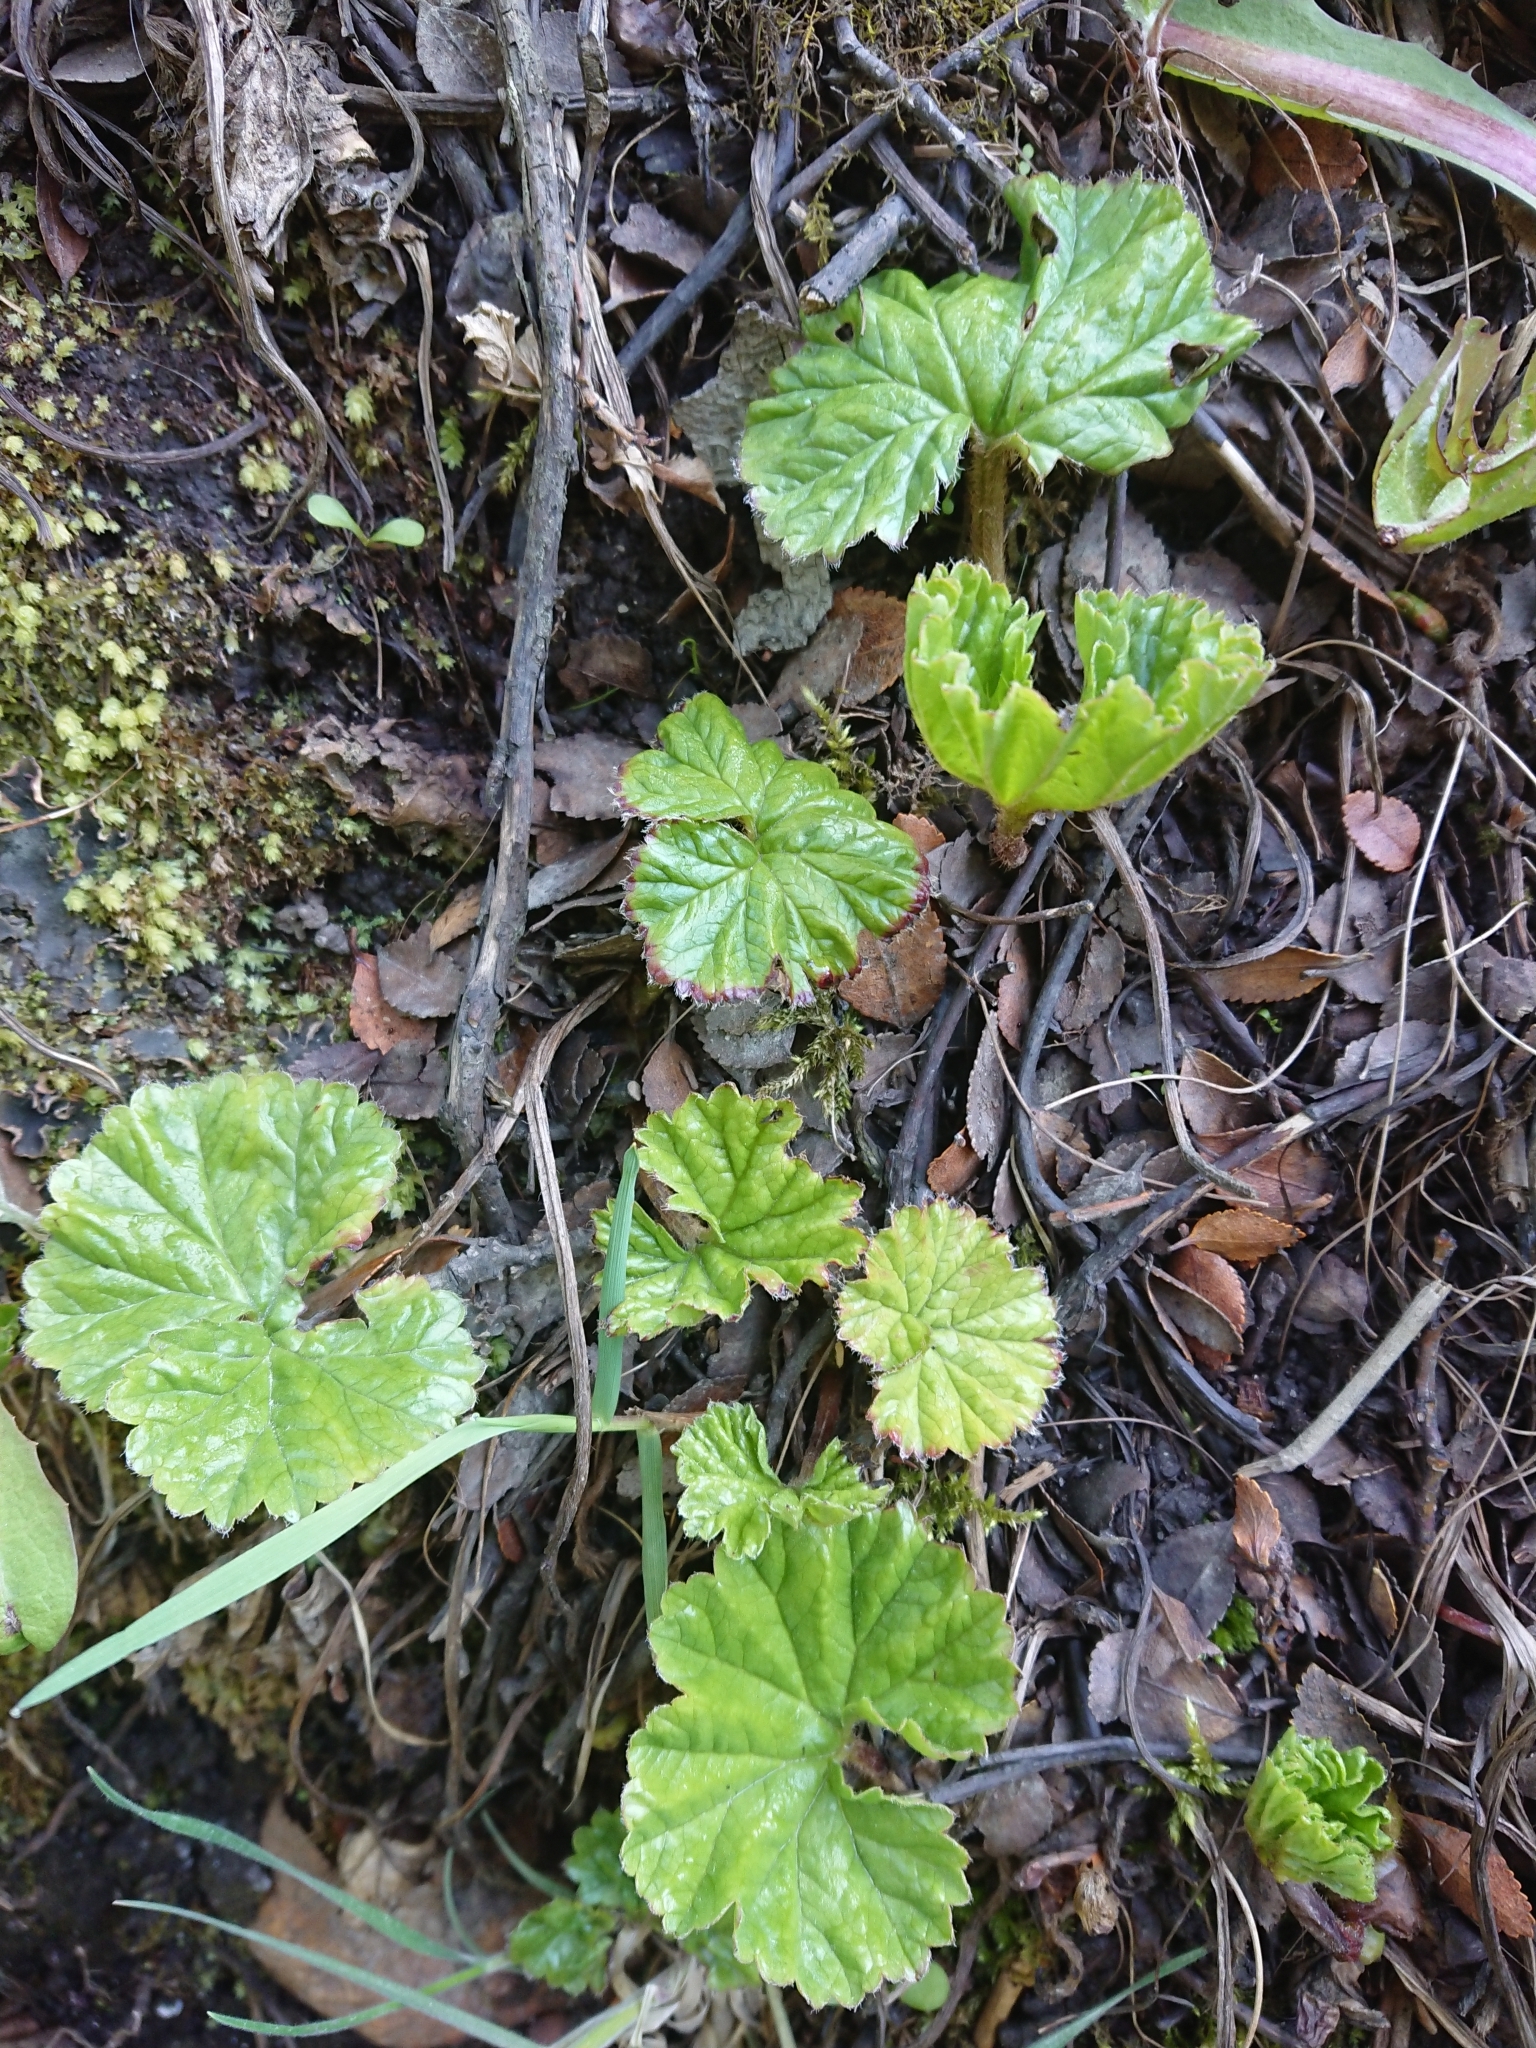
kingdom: Plantae
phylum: Tracheophyta
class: Magnoliopsida
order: Gunnerales
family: Gunneraceae
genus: Gunnera
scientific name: Gunnera magellanica
